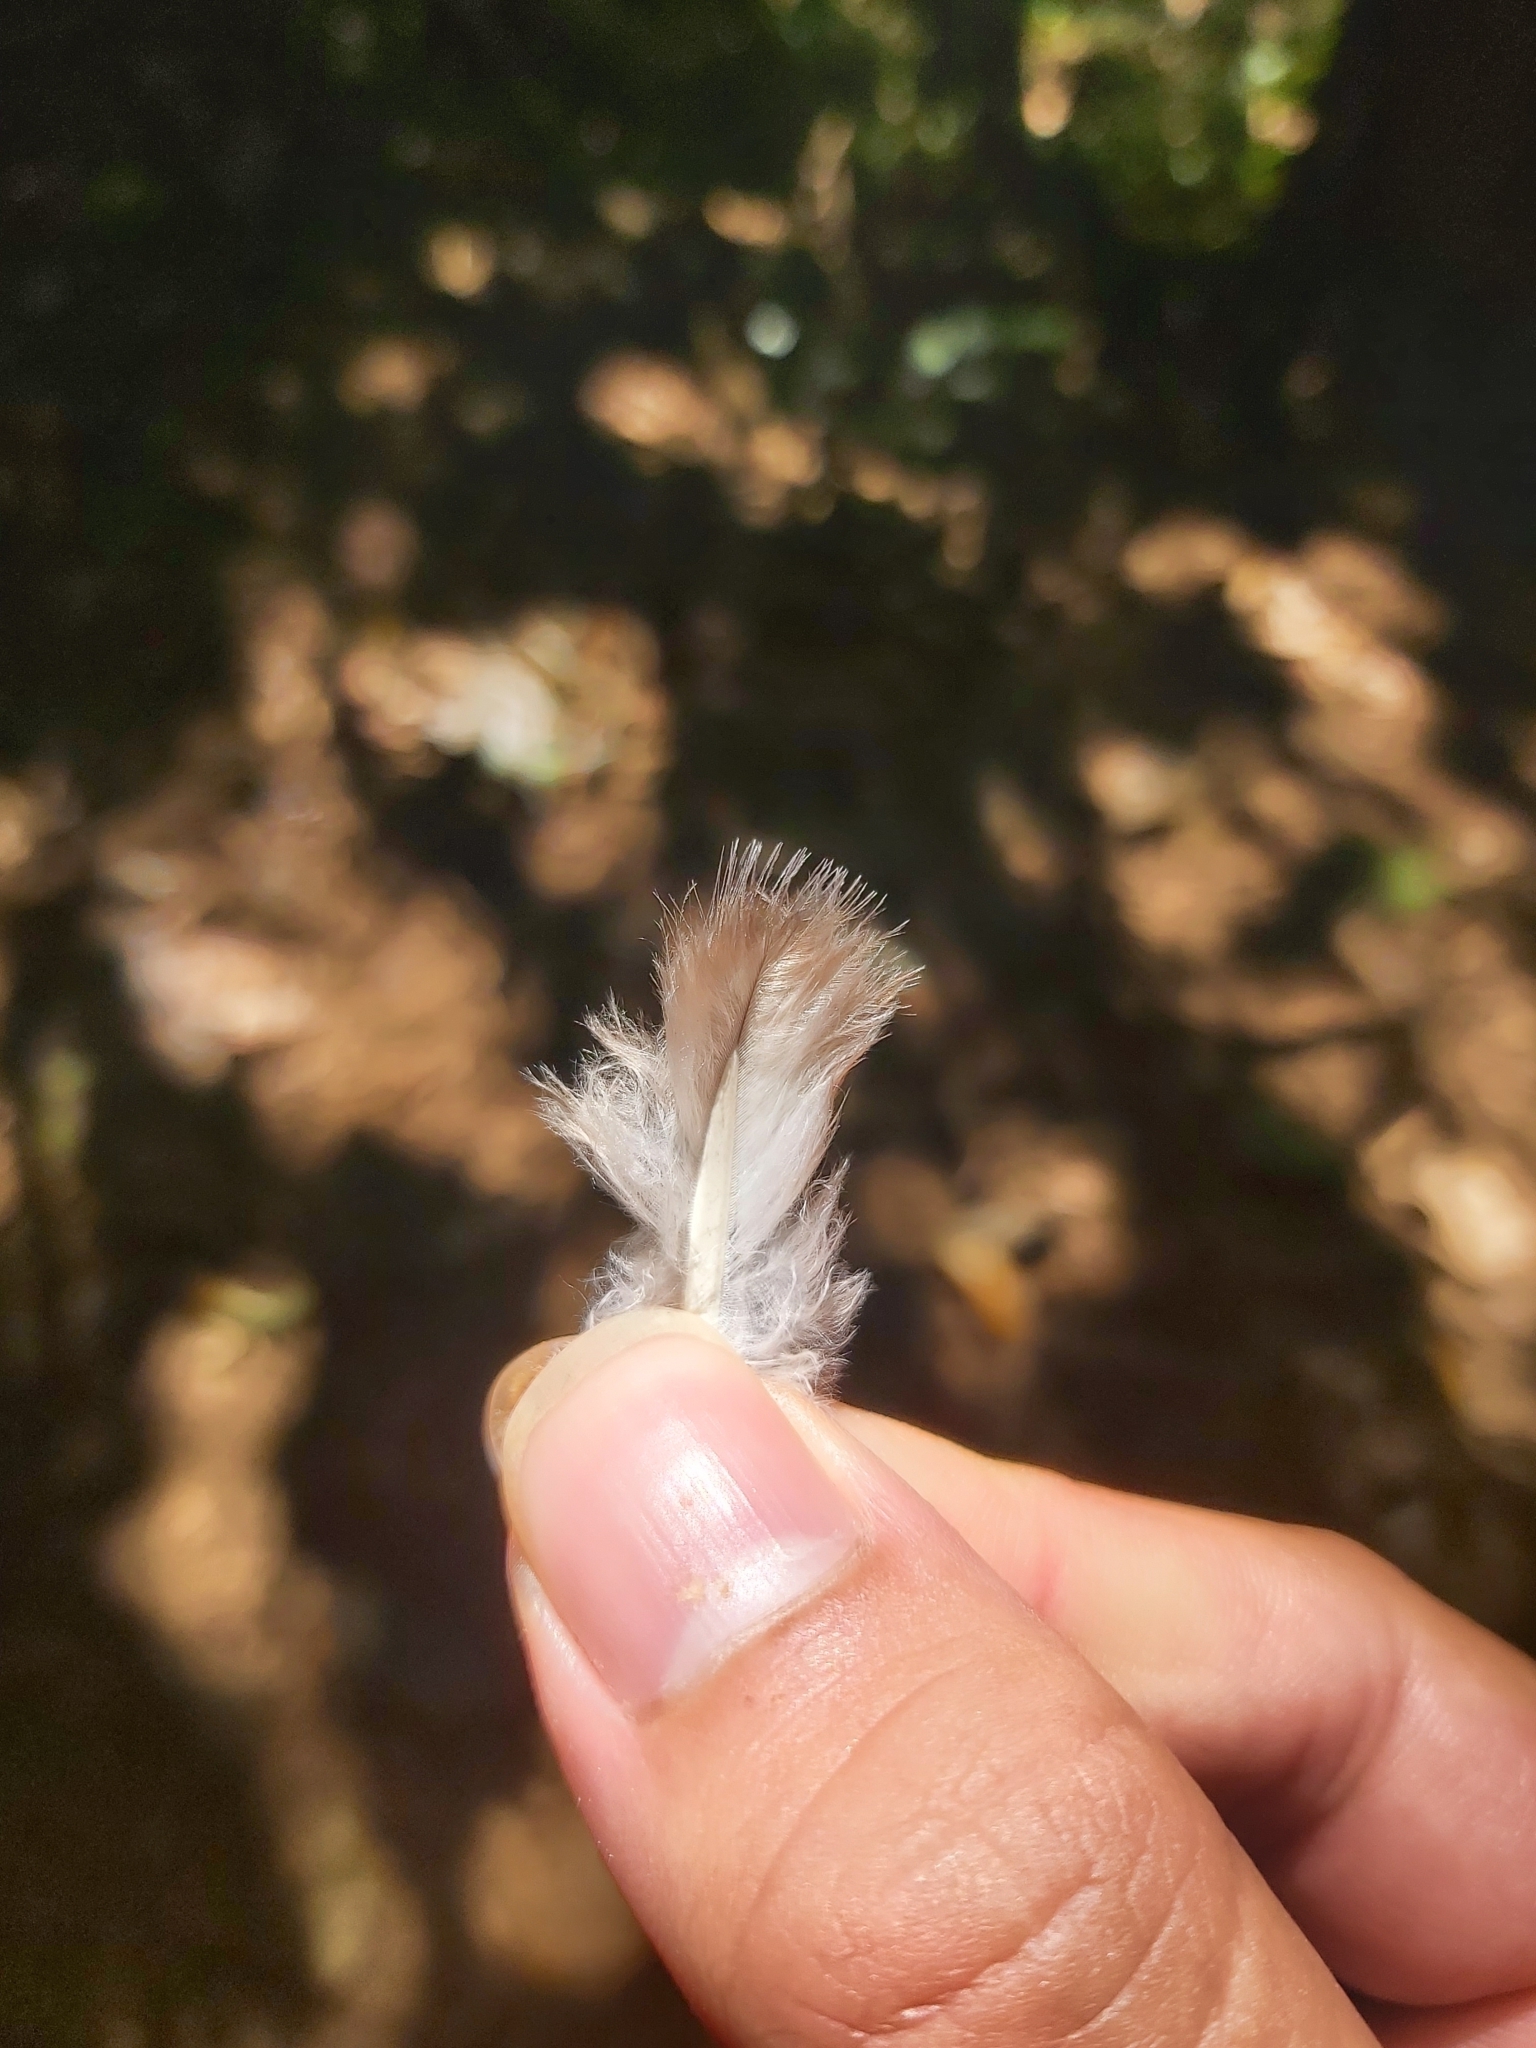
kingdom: Animalia
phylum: Chordata
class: Aves
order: Columbiformes
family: Columbidae
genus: Geopelia
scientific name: Geopelia humeralis
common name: Bar-shouldered dove
